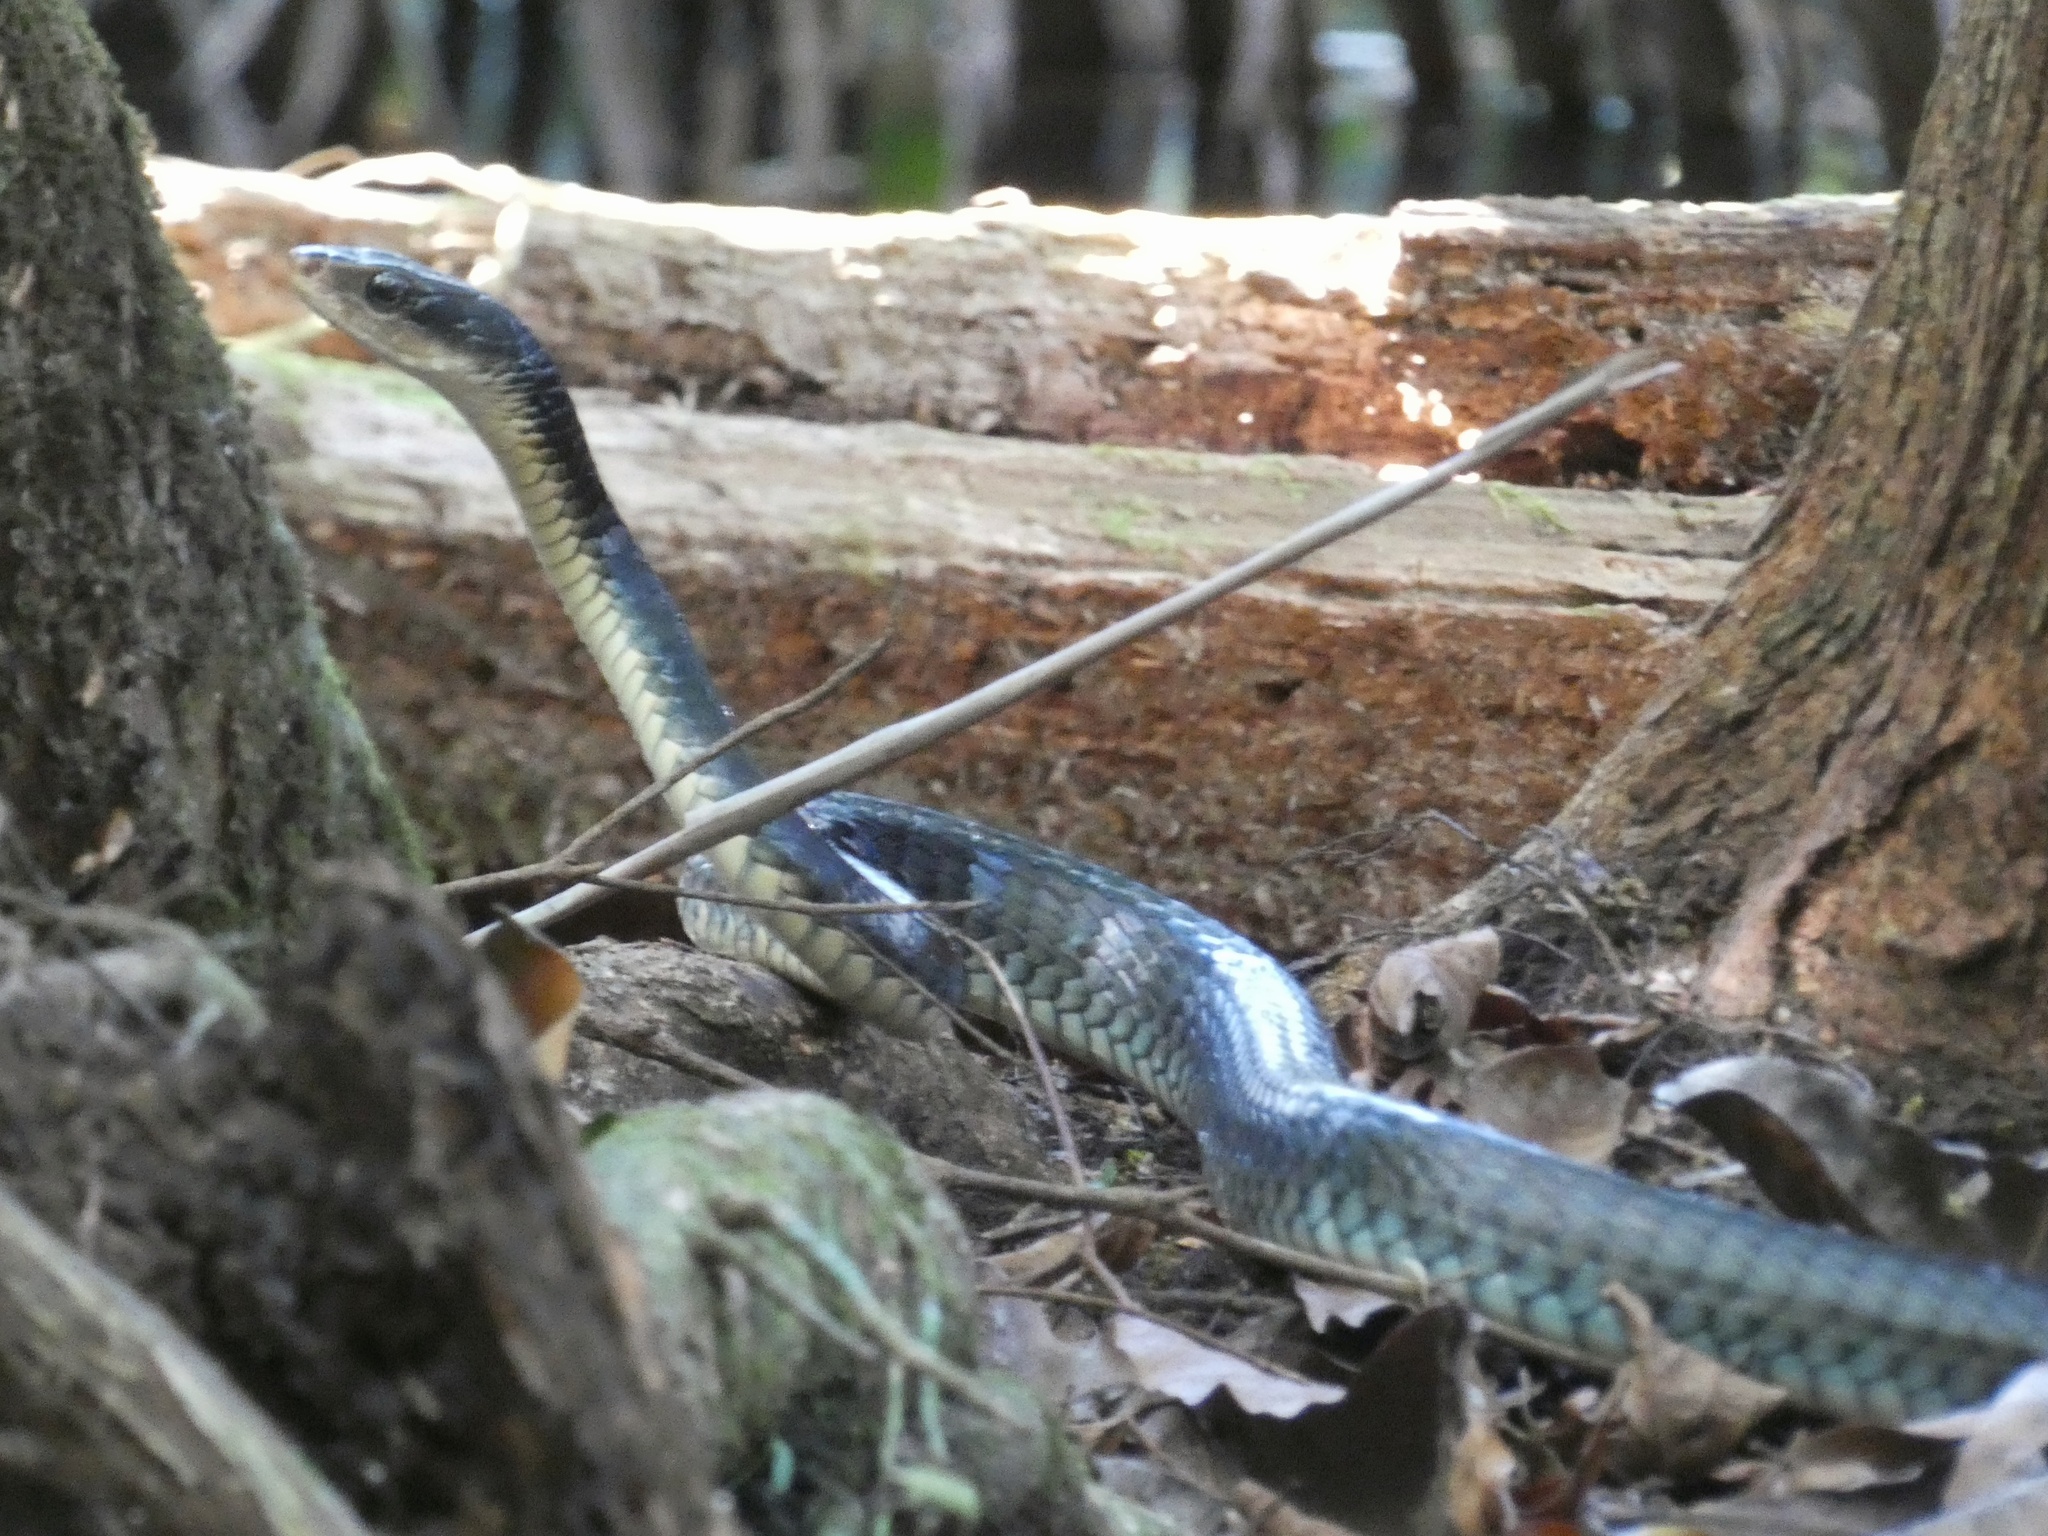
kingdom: Animalia
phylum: Chordata
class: Squamata
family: Colubridae
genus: Chironius
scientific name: Chironius flavopictus
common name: Sipo
